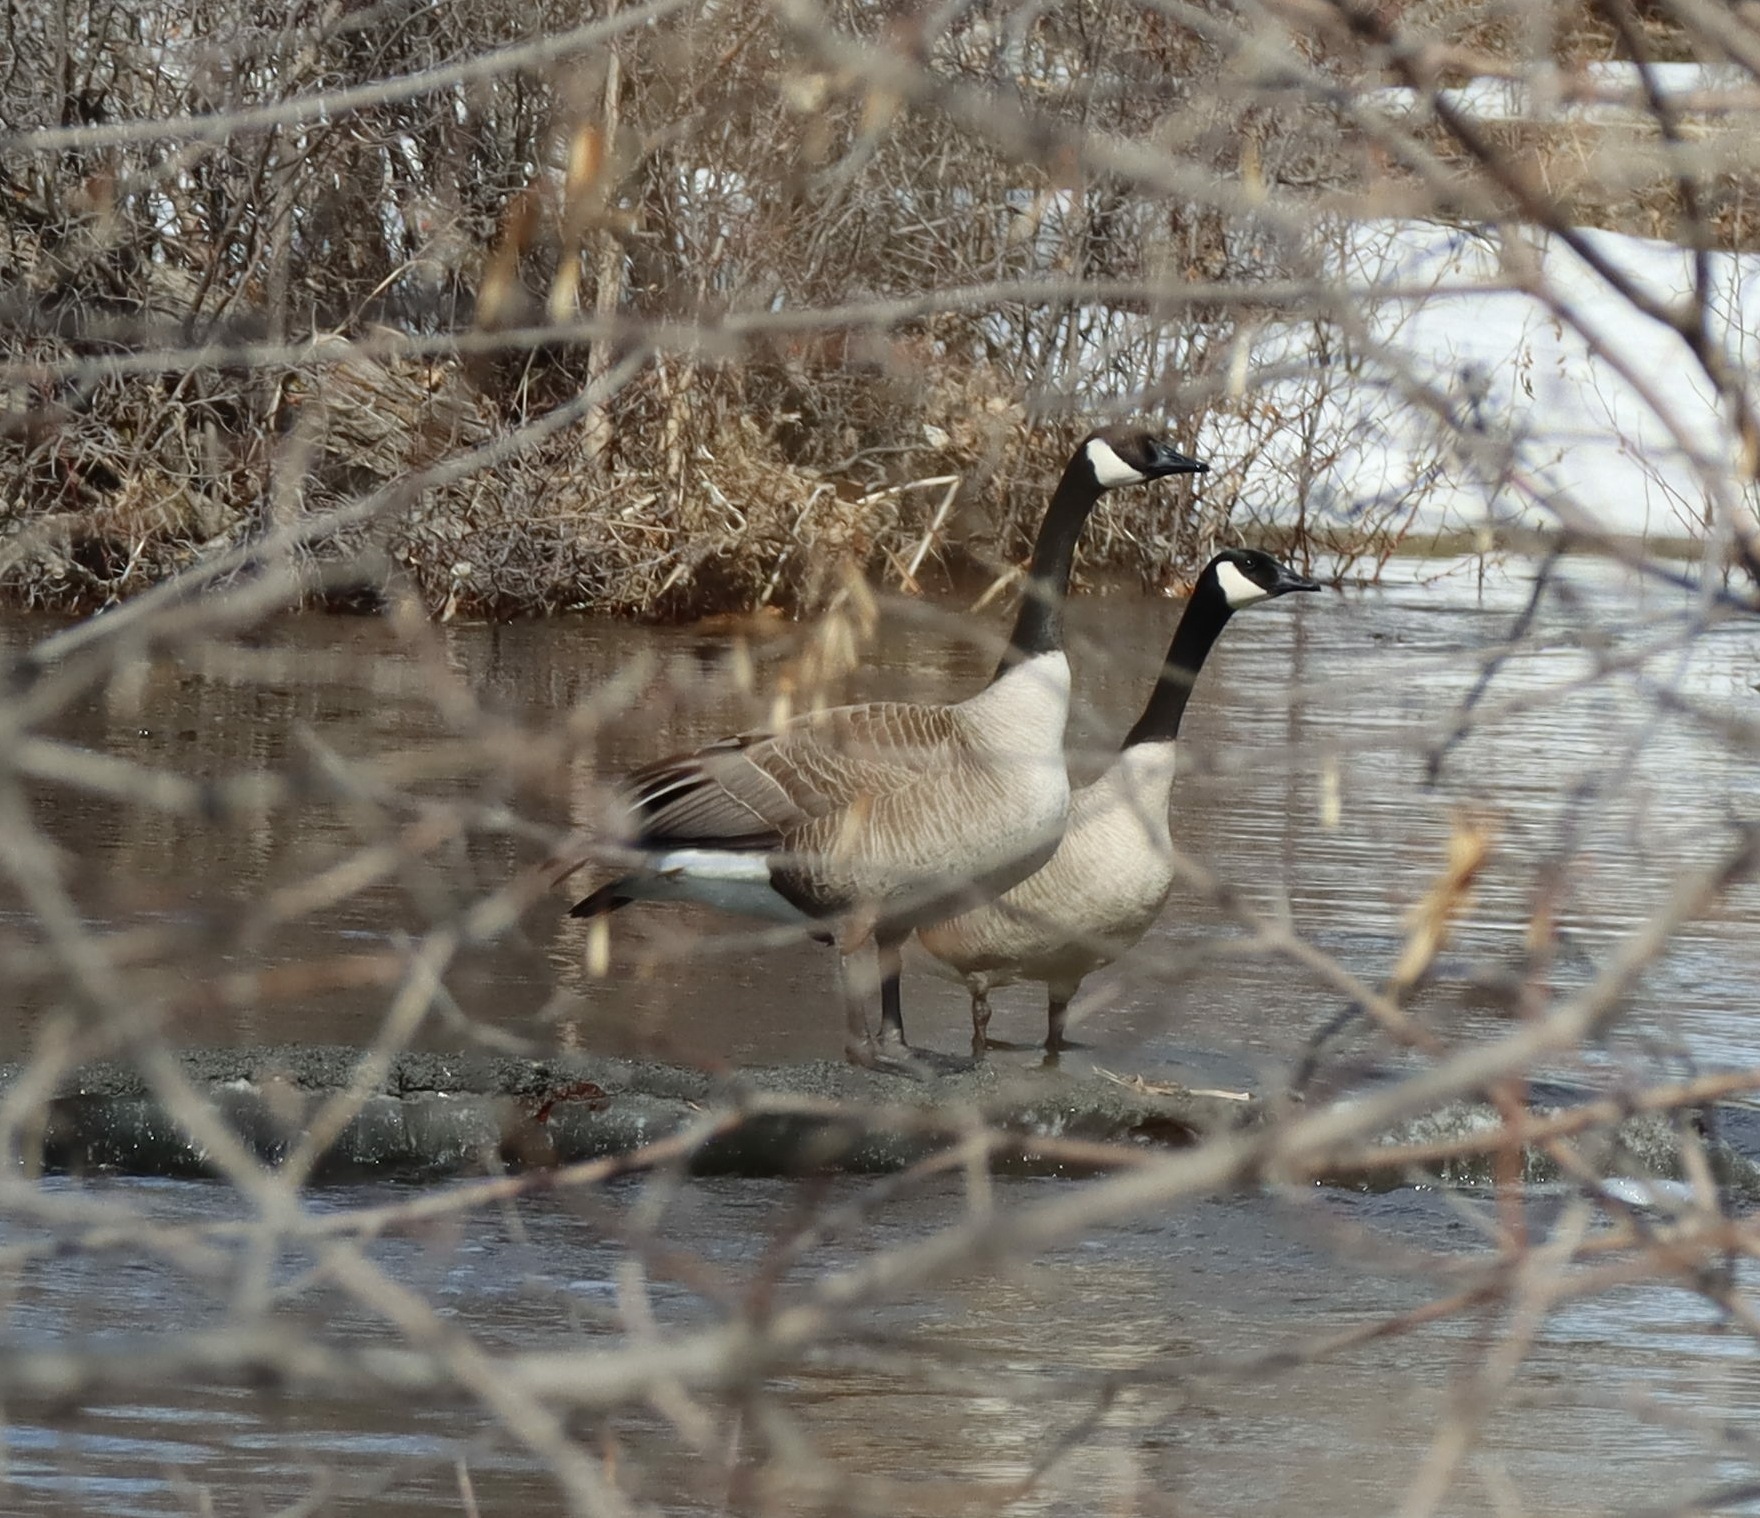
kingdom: Animalia
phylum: Chordata
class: Aves
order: Anseriformes
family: Anatidae
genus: Branta
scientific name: Branta canadensis
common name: Canada goose
